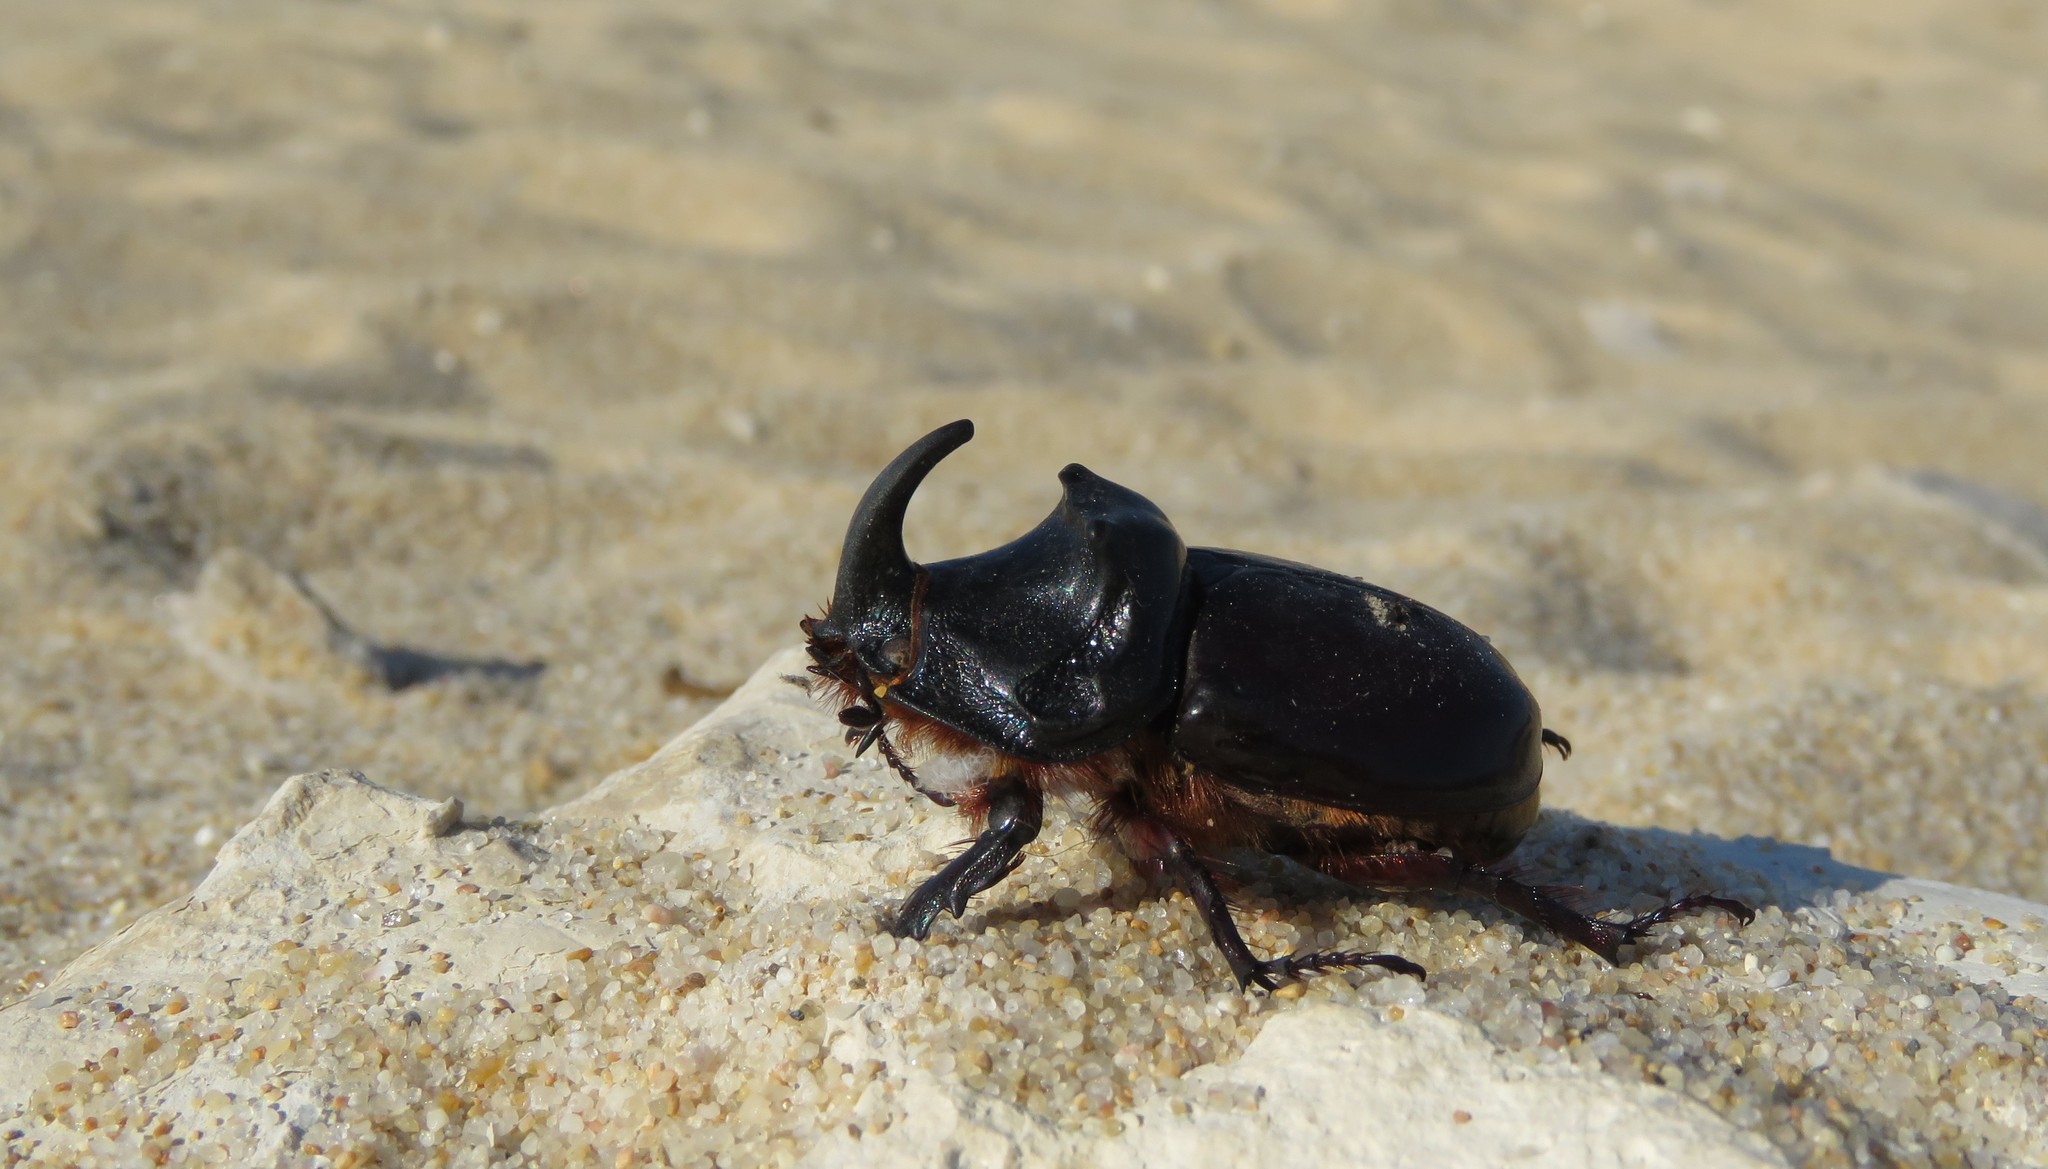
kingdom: Animalia
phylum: Arthropoda
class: Insecta
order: Coleoptera
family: Scarabaeidae
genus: Oryctes
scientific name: Oryctes nasicornis
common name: European rhinoceros beetle
